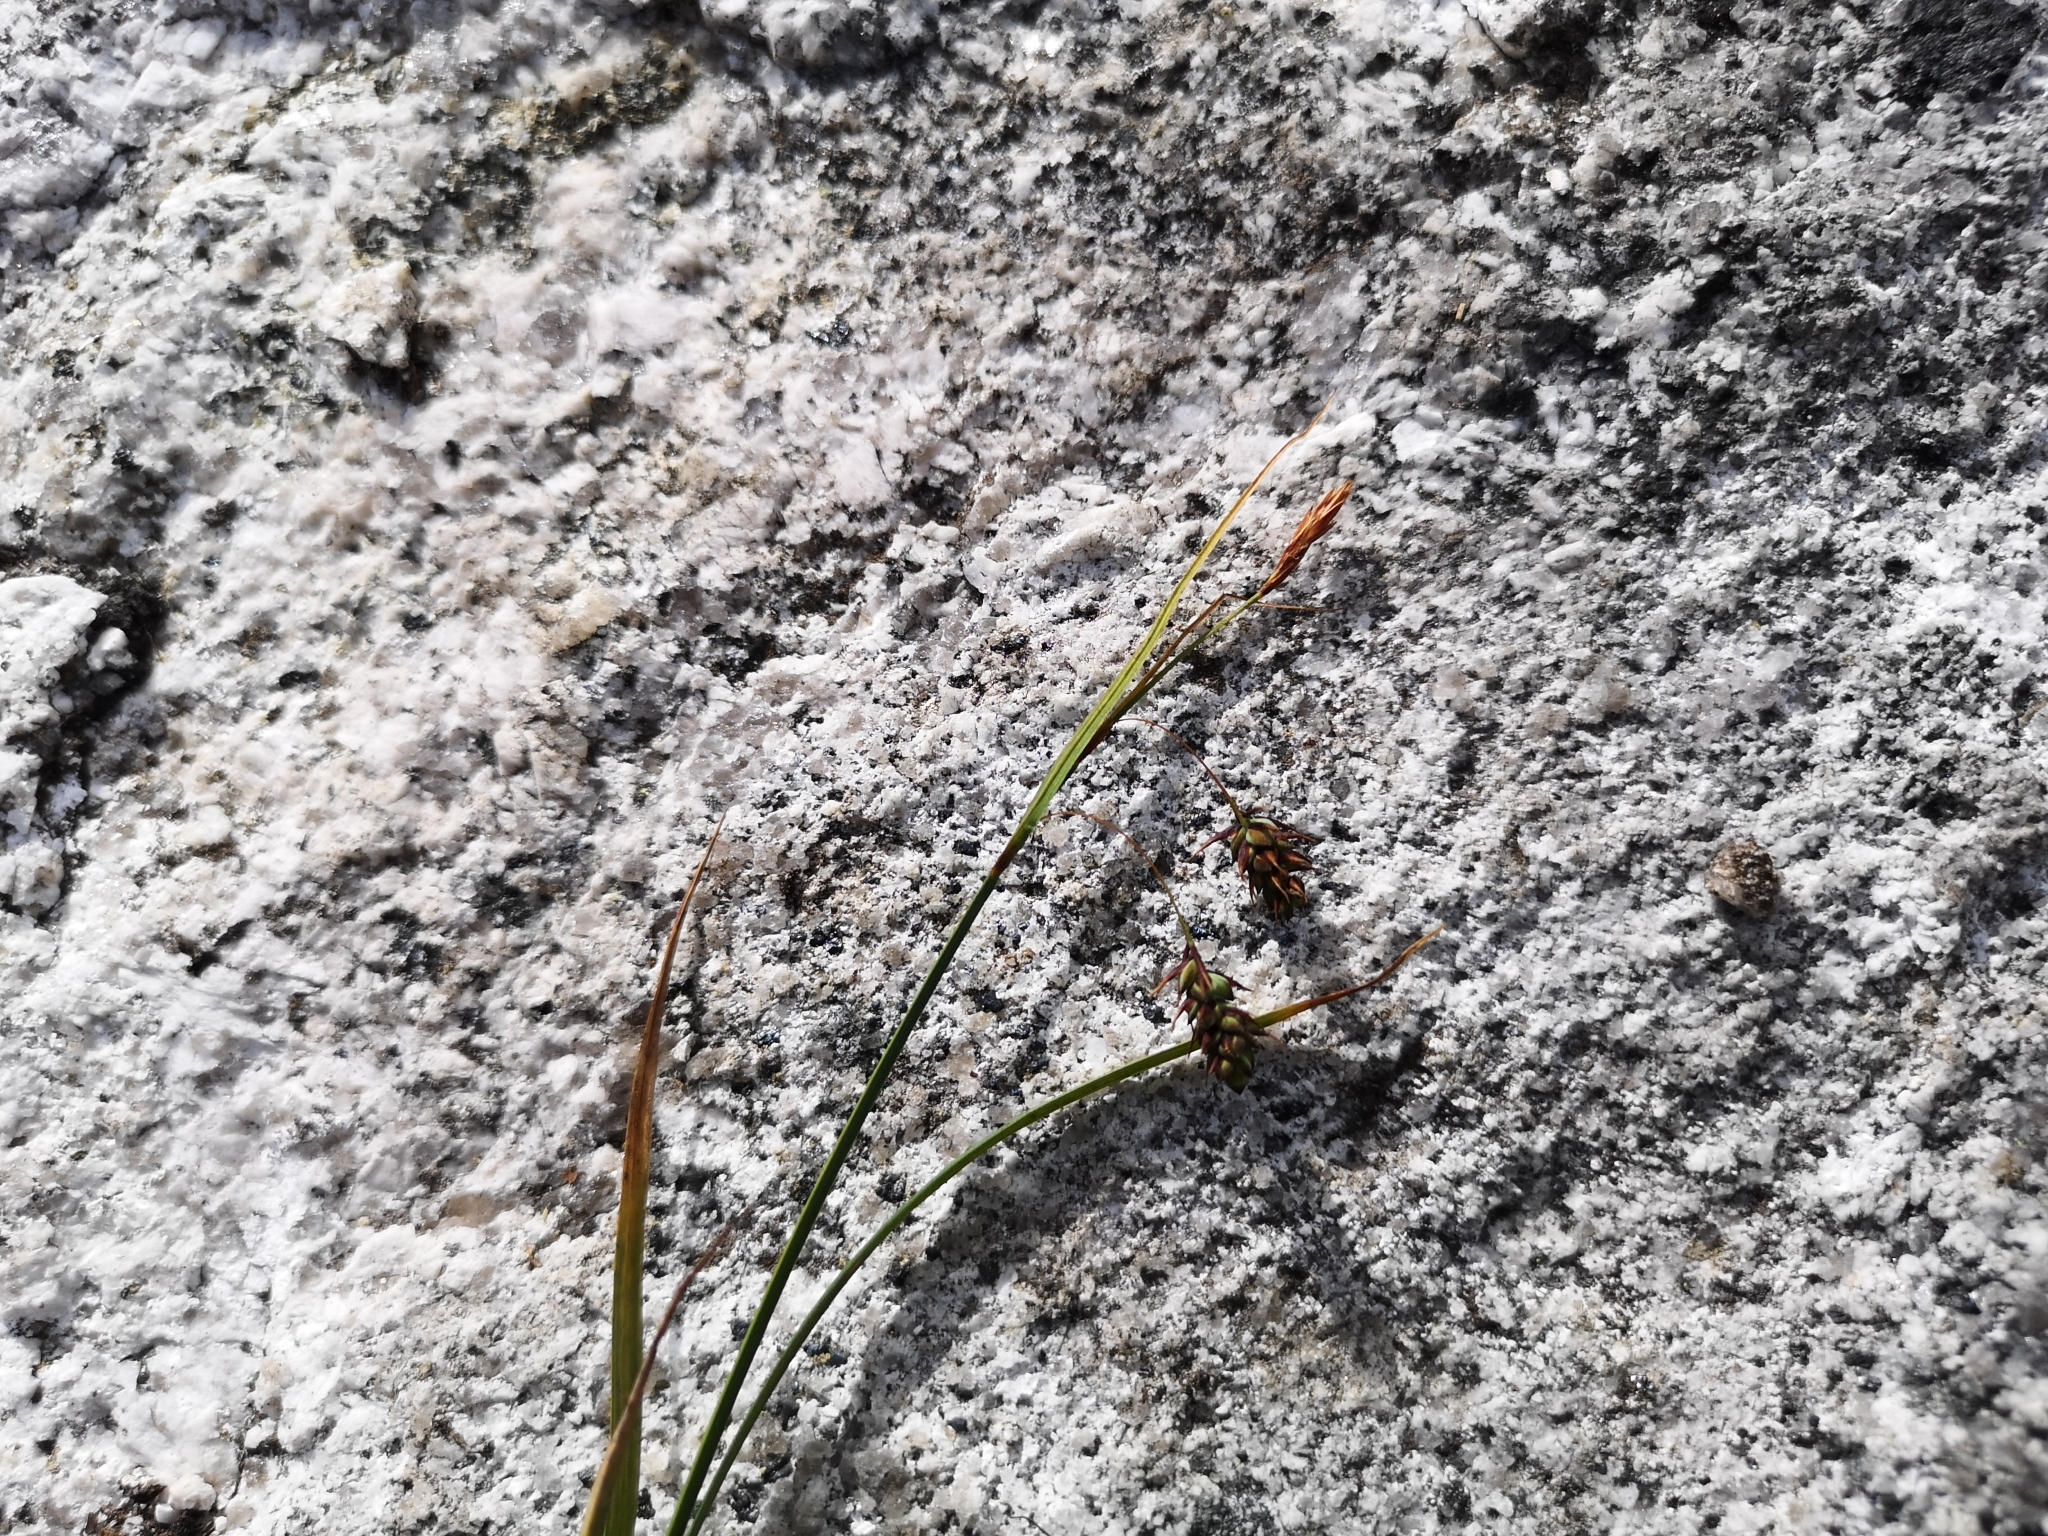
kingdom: Plantae
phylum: Tracheophyta
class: Liliopsida
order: Poales
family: Cyperaceae
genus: Carex
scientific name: Carex magellanica
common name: Bog sedge
